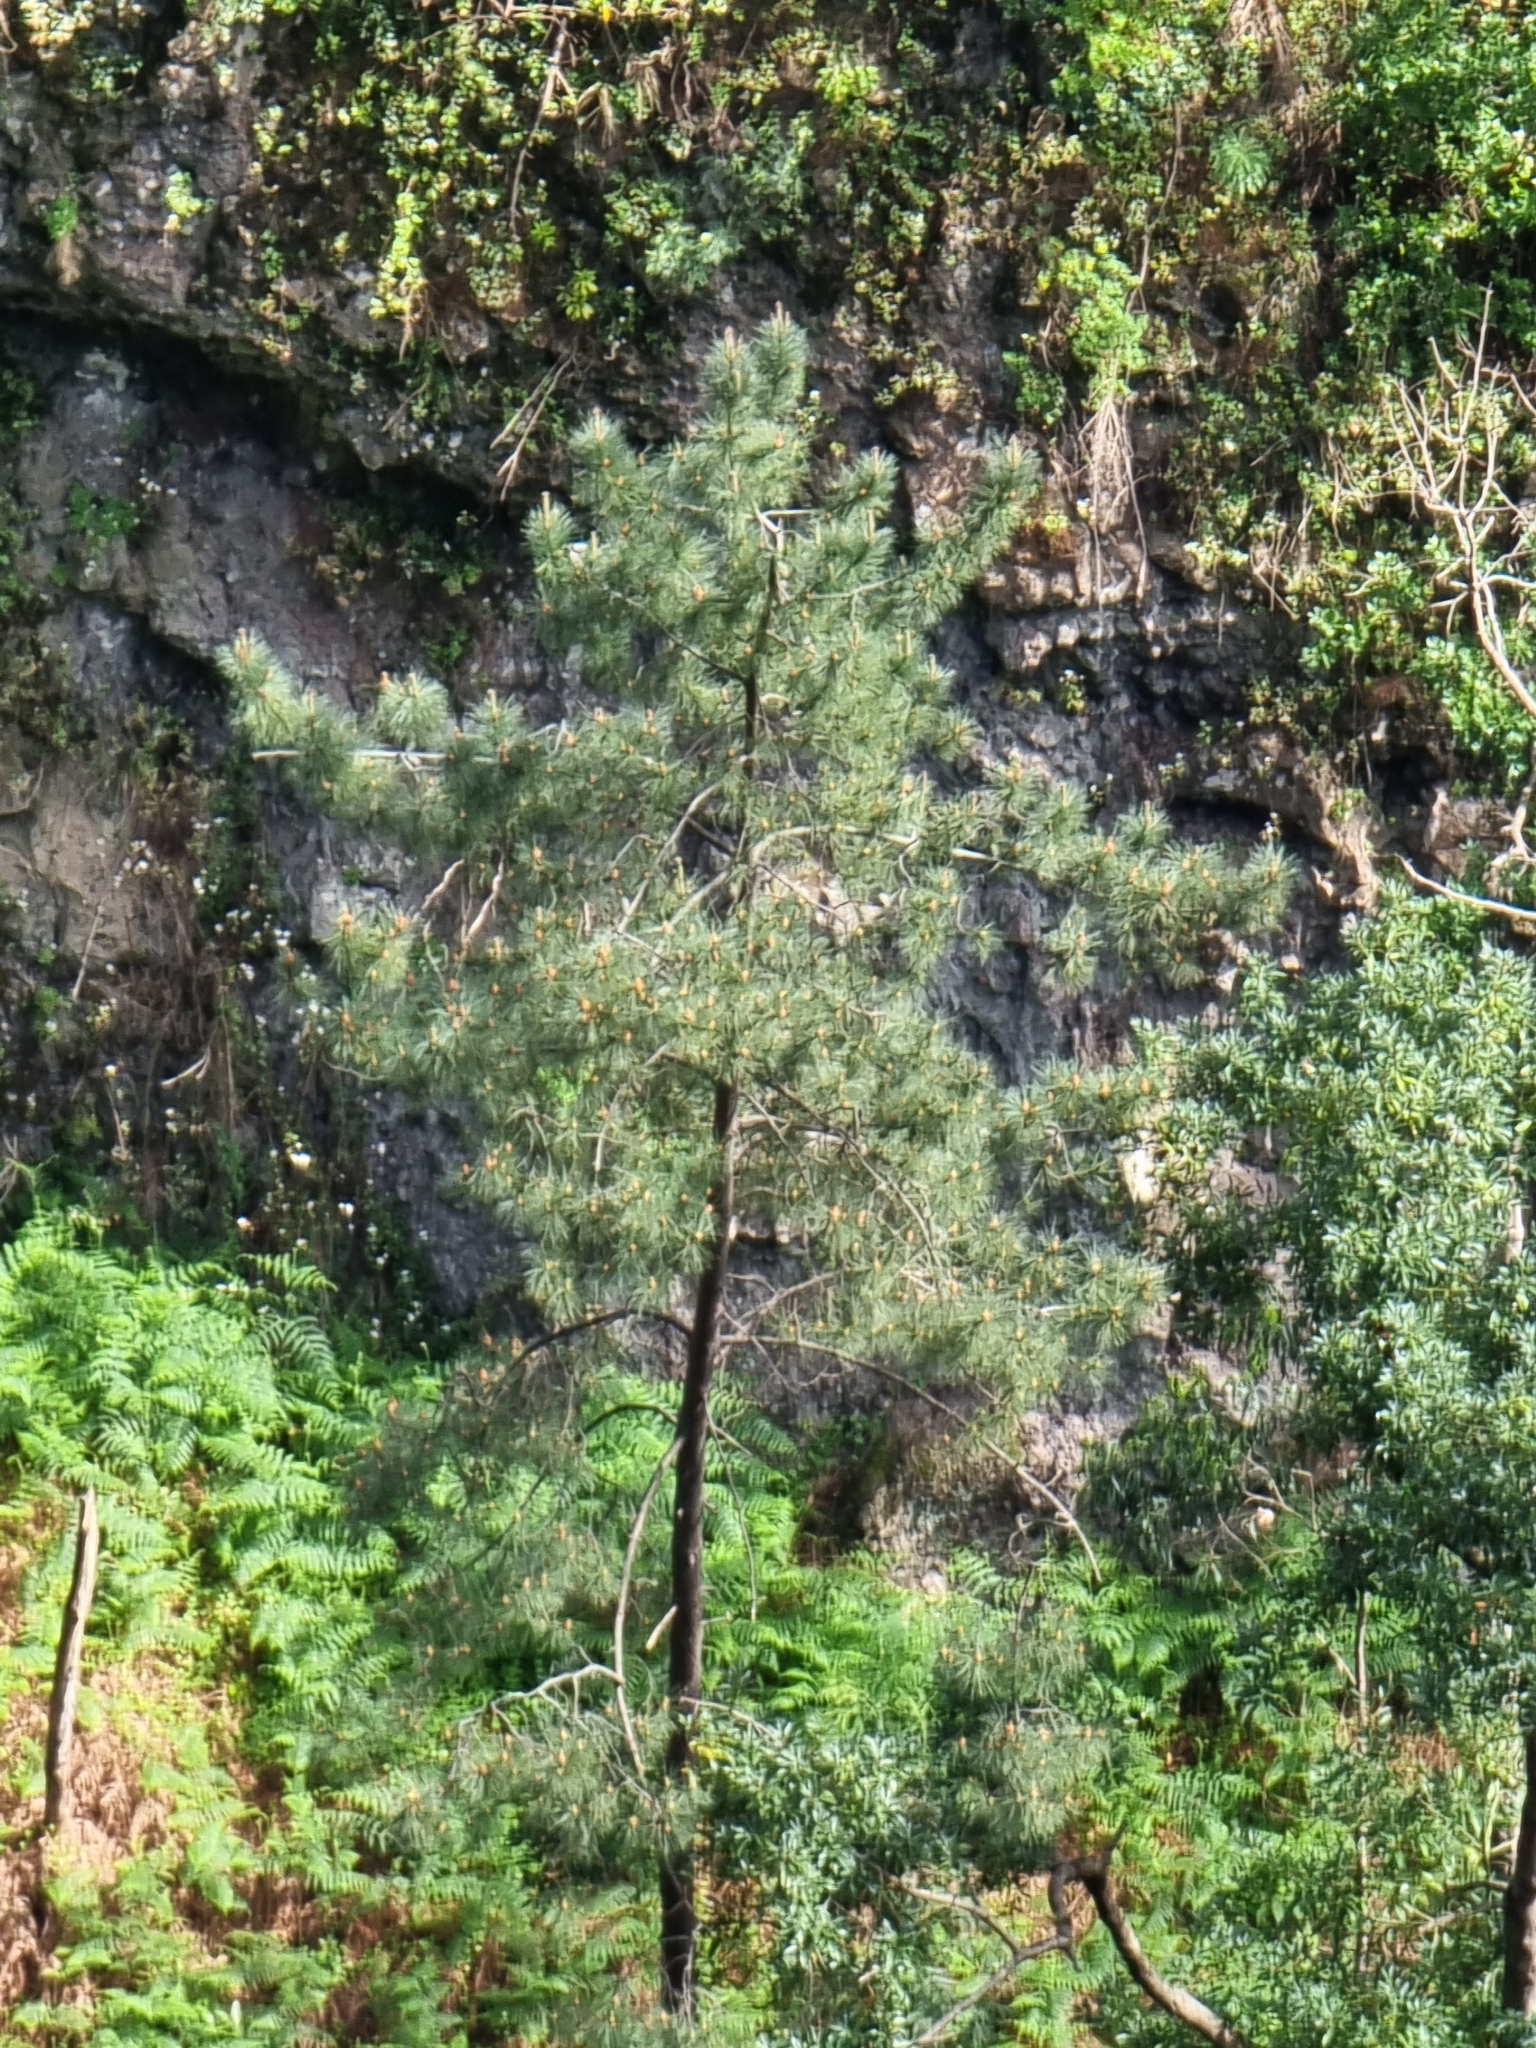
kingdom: Plantae
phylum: Tracheophyta
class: Pinopsida
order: Pinales
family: Pinaceae
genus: Pinus
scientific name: Pinus pinaster
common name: Maritime pine
